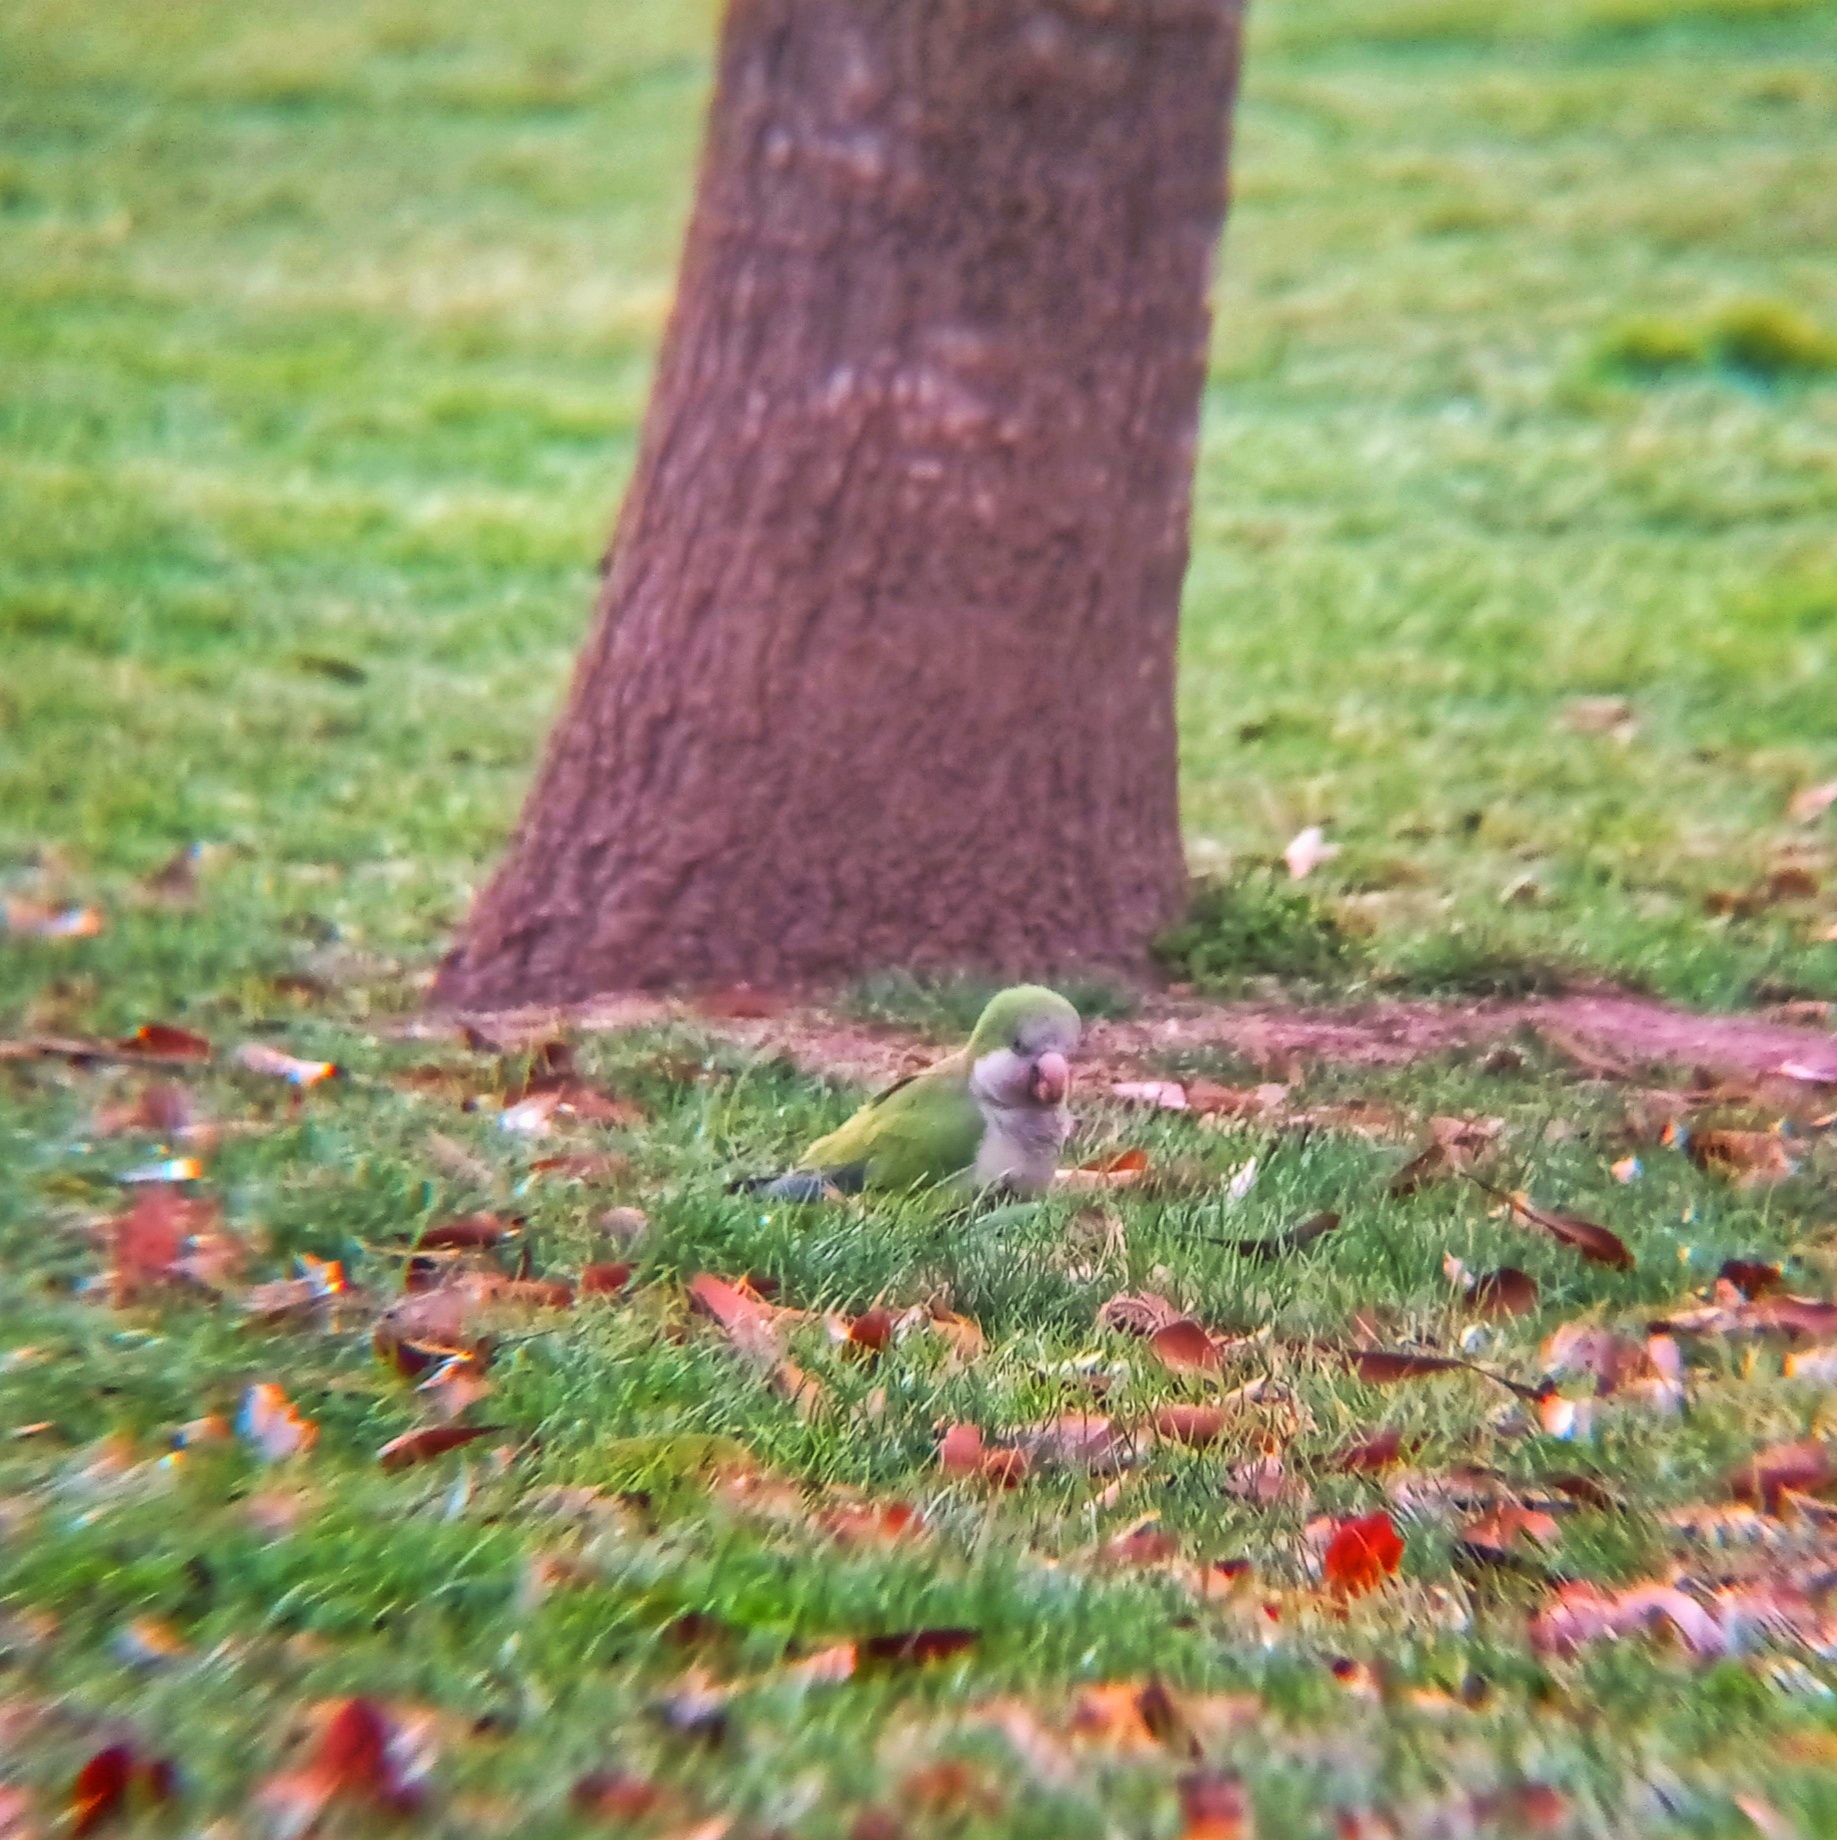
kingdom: Animalia
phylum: Chordata
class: Aves
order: Psittaciformes
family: Psittacidae
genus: Myiopsitta
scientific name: Myiopsitta monachus
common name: Monk parakeet
